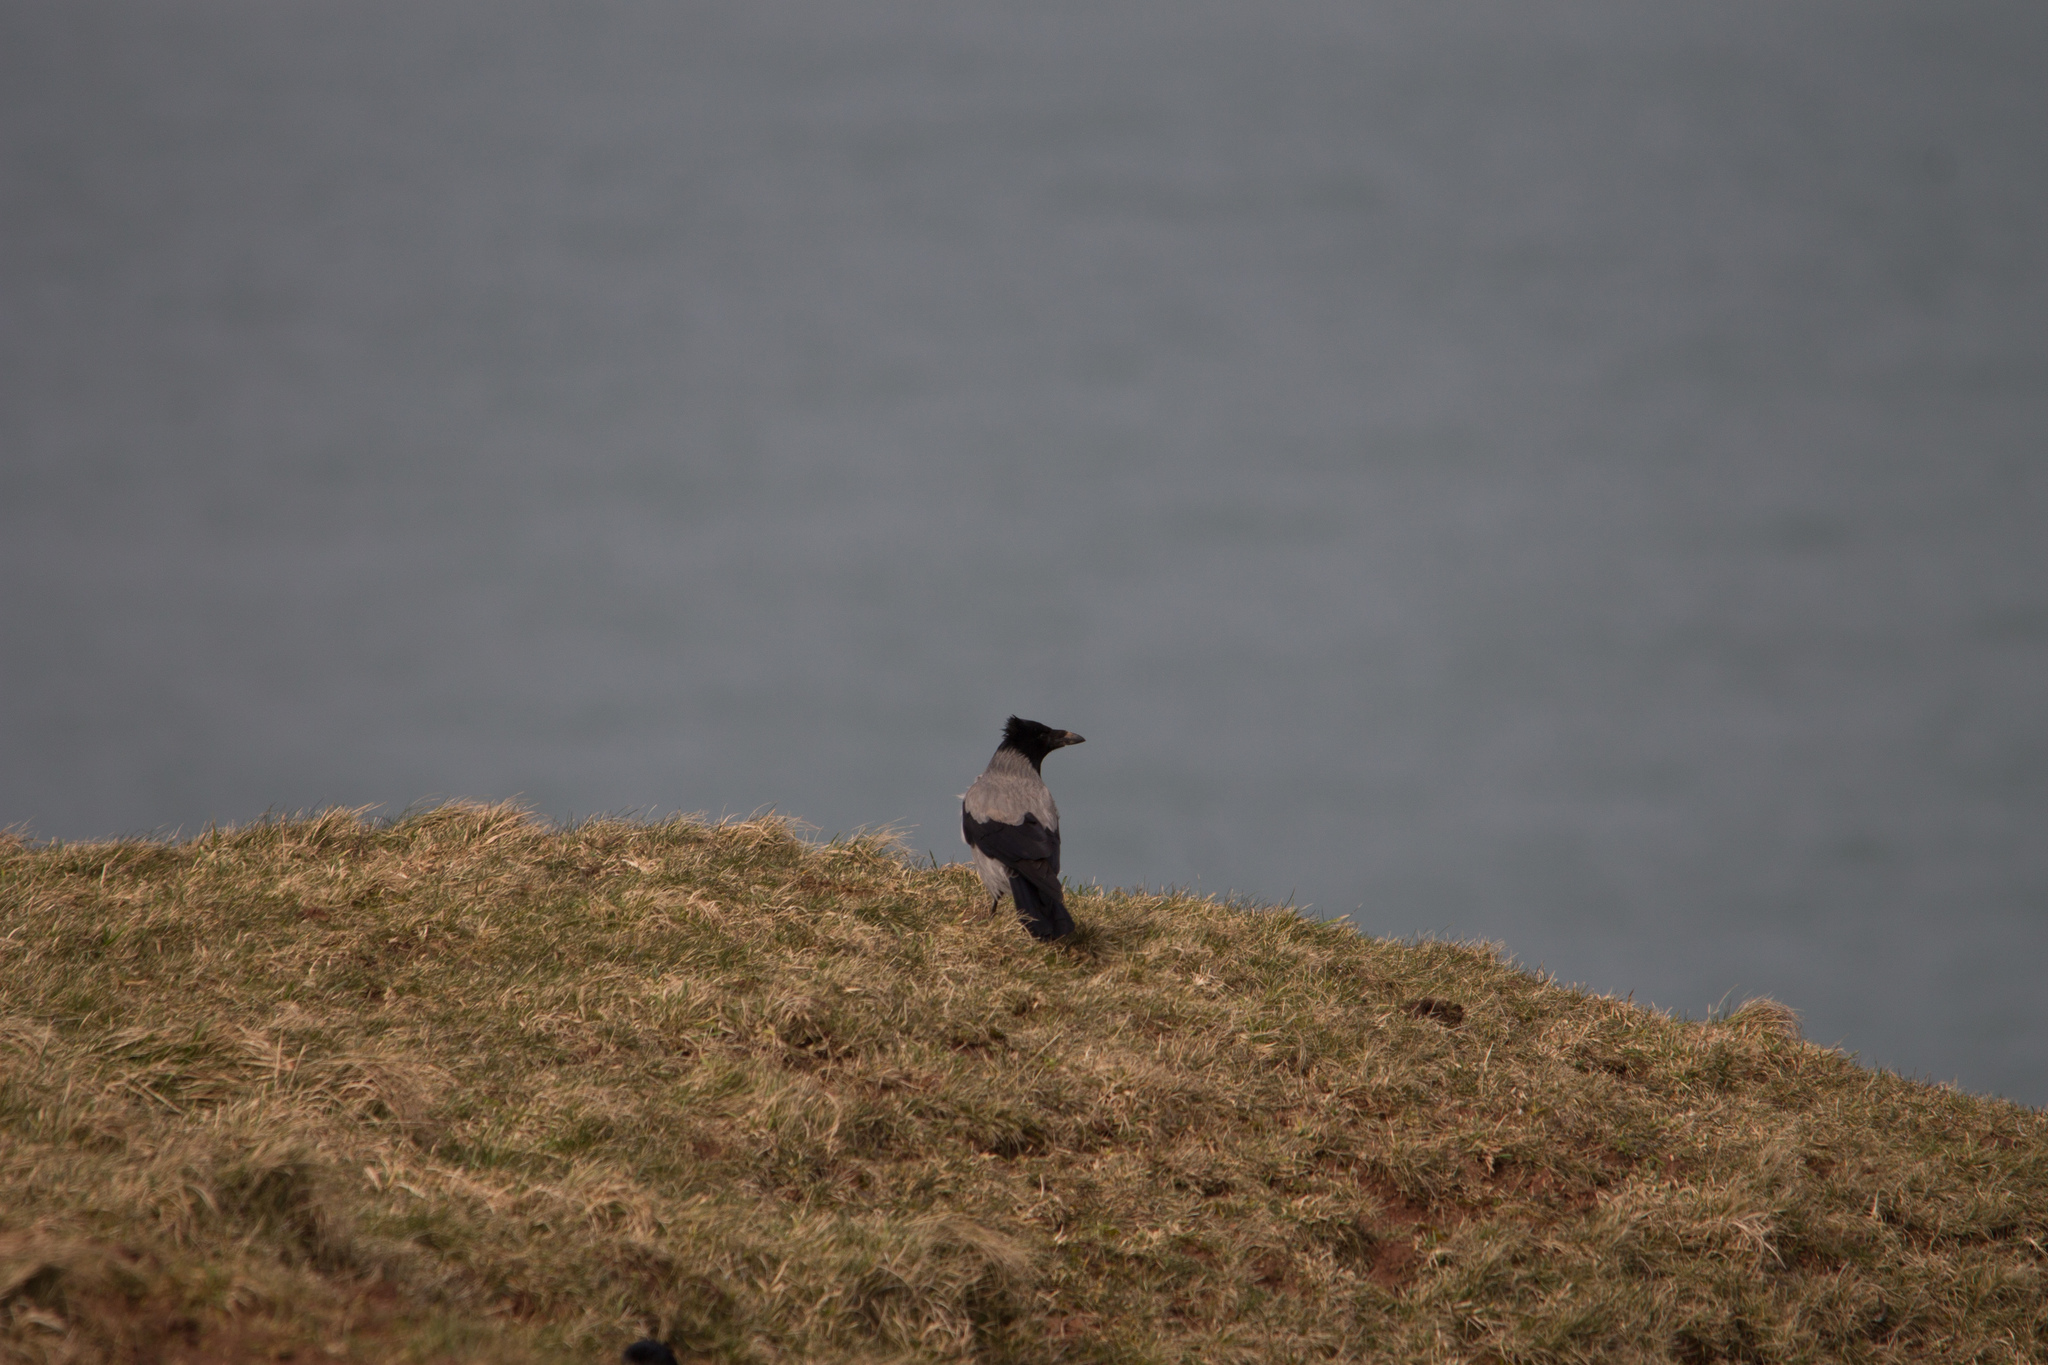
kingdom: Animalia
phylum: Chordata
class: Aves
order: Passeriformes
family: Corvidae
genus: Corvus
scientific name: Corvus cornix
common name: Hooded crow
